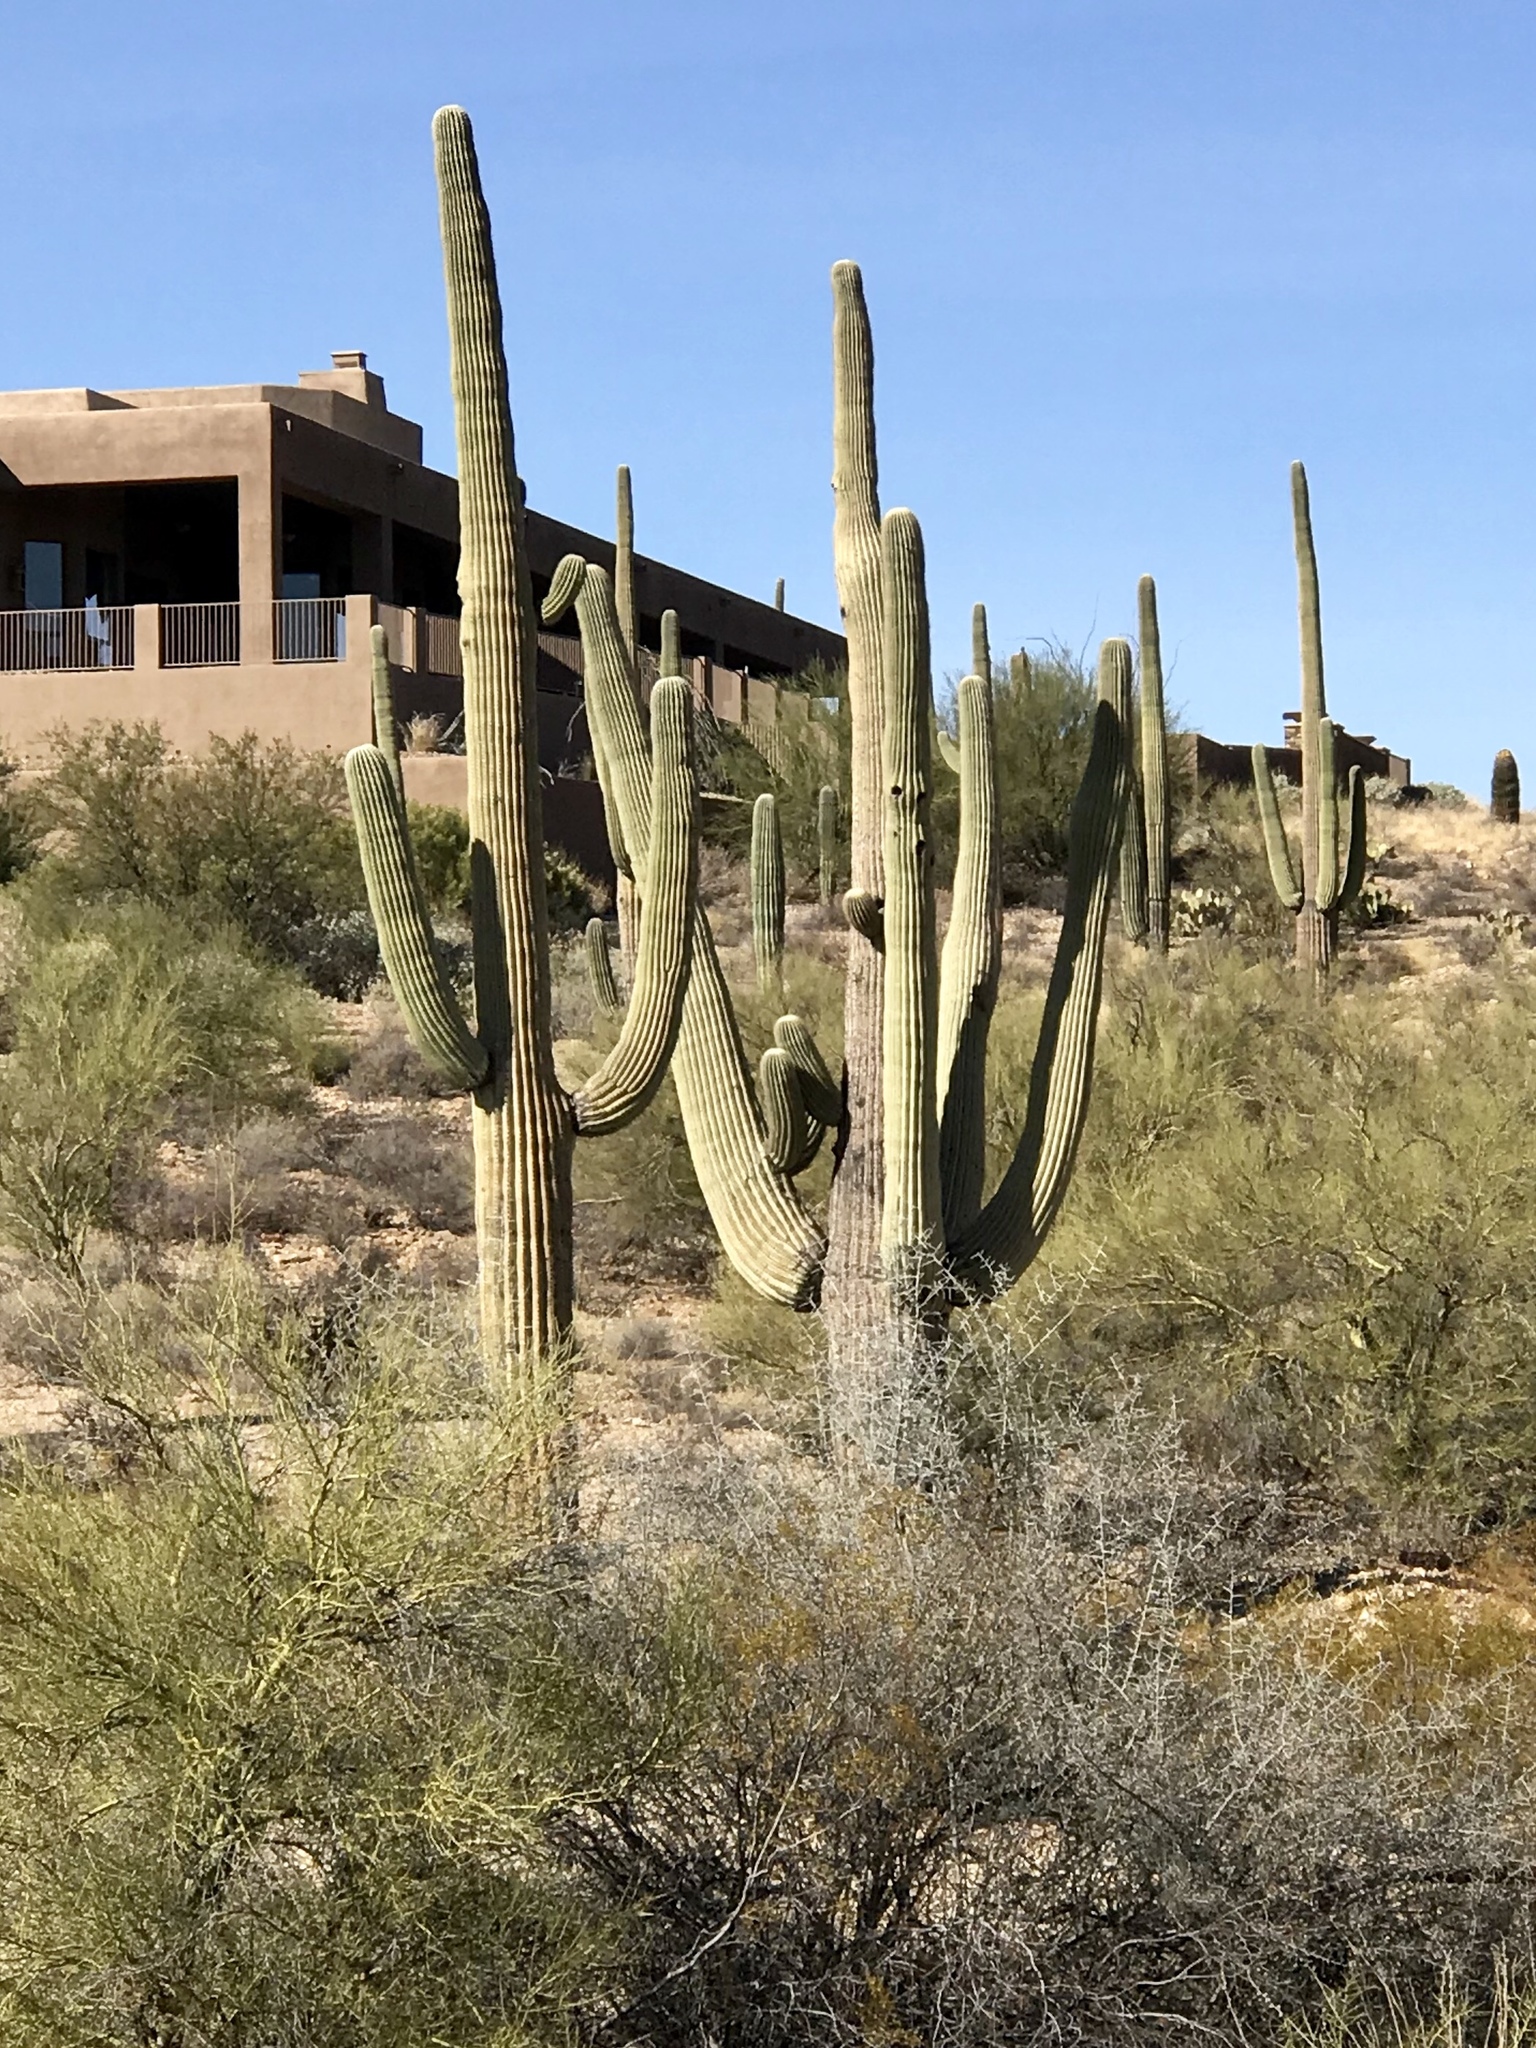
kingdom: Plantae
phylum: Tracheophyta
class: Magnoliopsida
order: Caryophyllales
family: Cactaceae
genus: Carnegiea
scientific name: Carnegiea gigantea
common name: Saguaro
